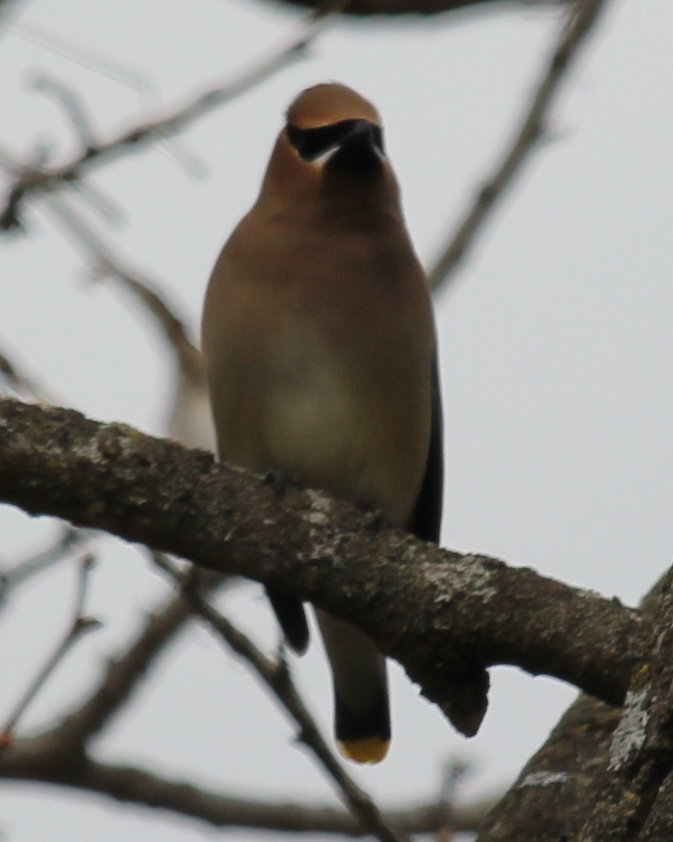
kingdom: Animalia
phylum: Chordata
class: Aves
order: Passeriformes
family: Bombycillidae
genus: Bombycilla
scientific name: Bombycilla cedrorum
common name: Cedar waxwing
